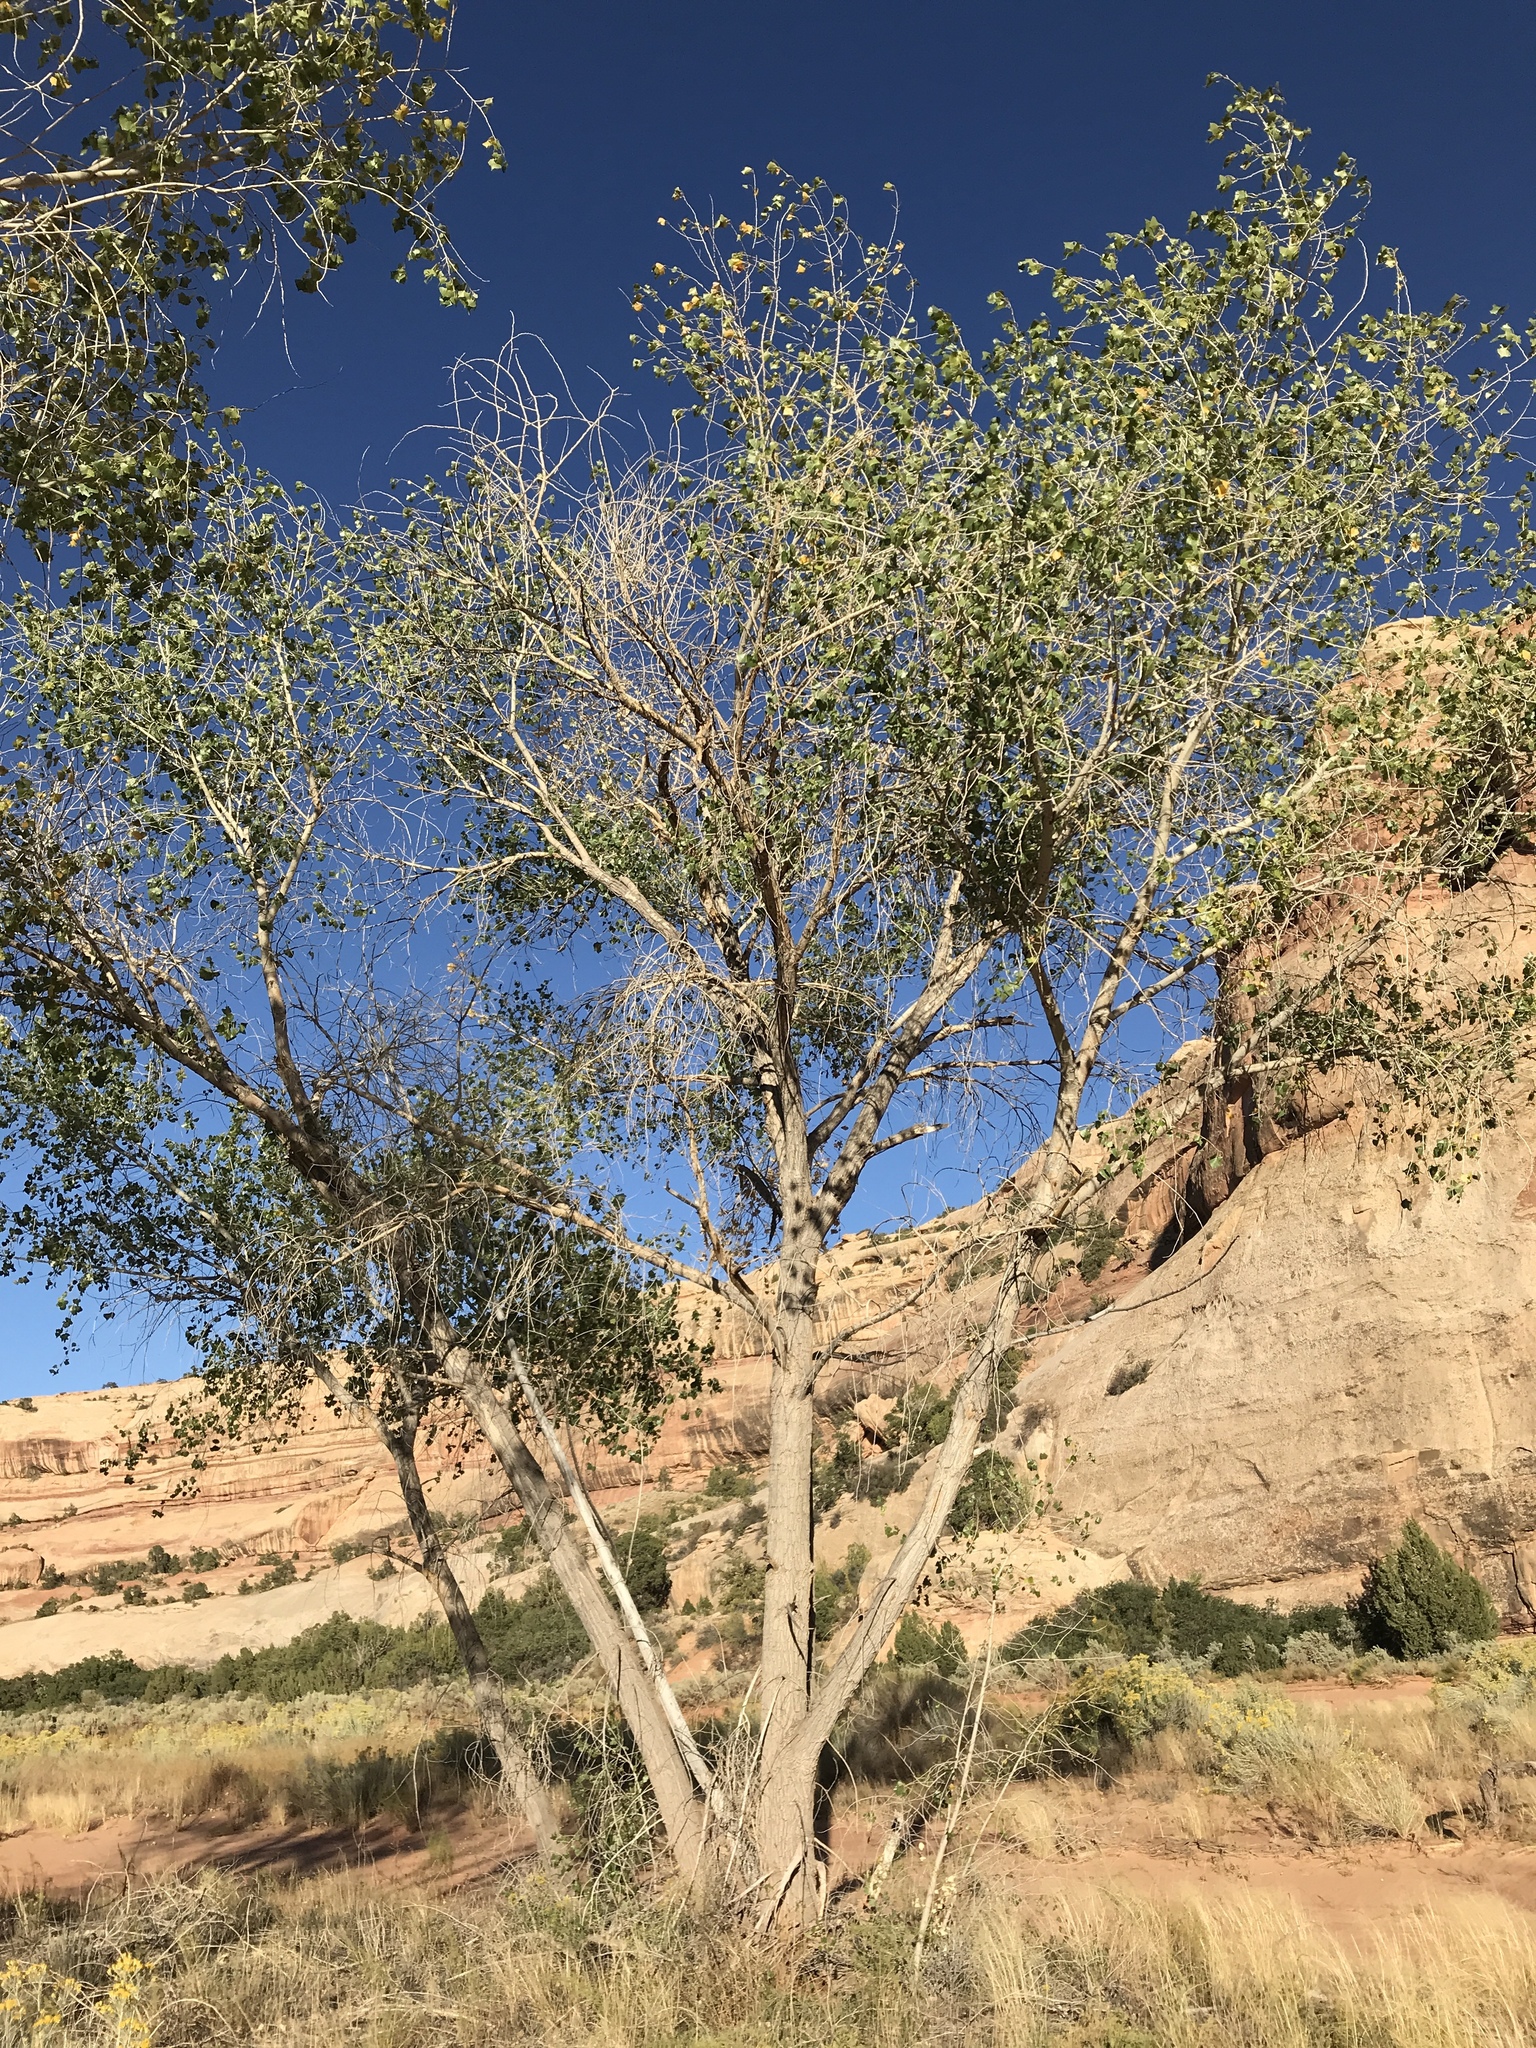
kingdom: Plantae
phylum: Tracheophyta
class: Magnoliopsida
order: Malpighiales
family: Salicaceae
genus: Populus
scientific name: Populus fremontii
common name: Fremont's cottonwood
